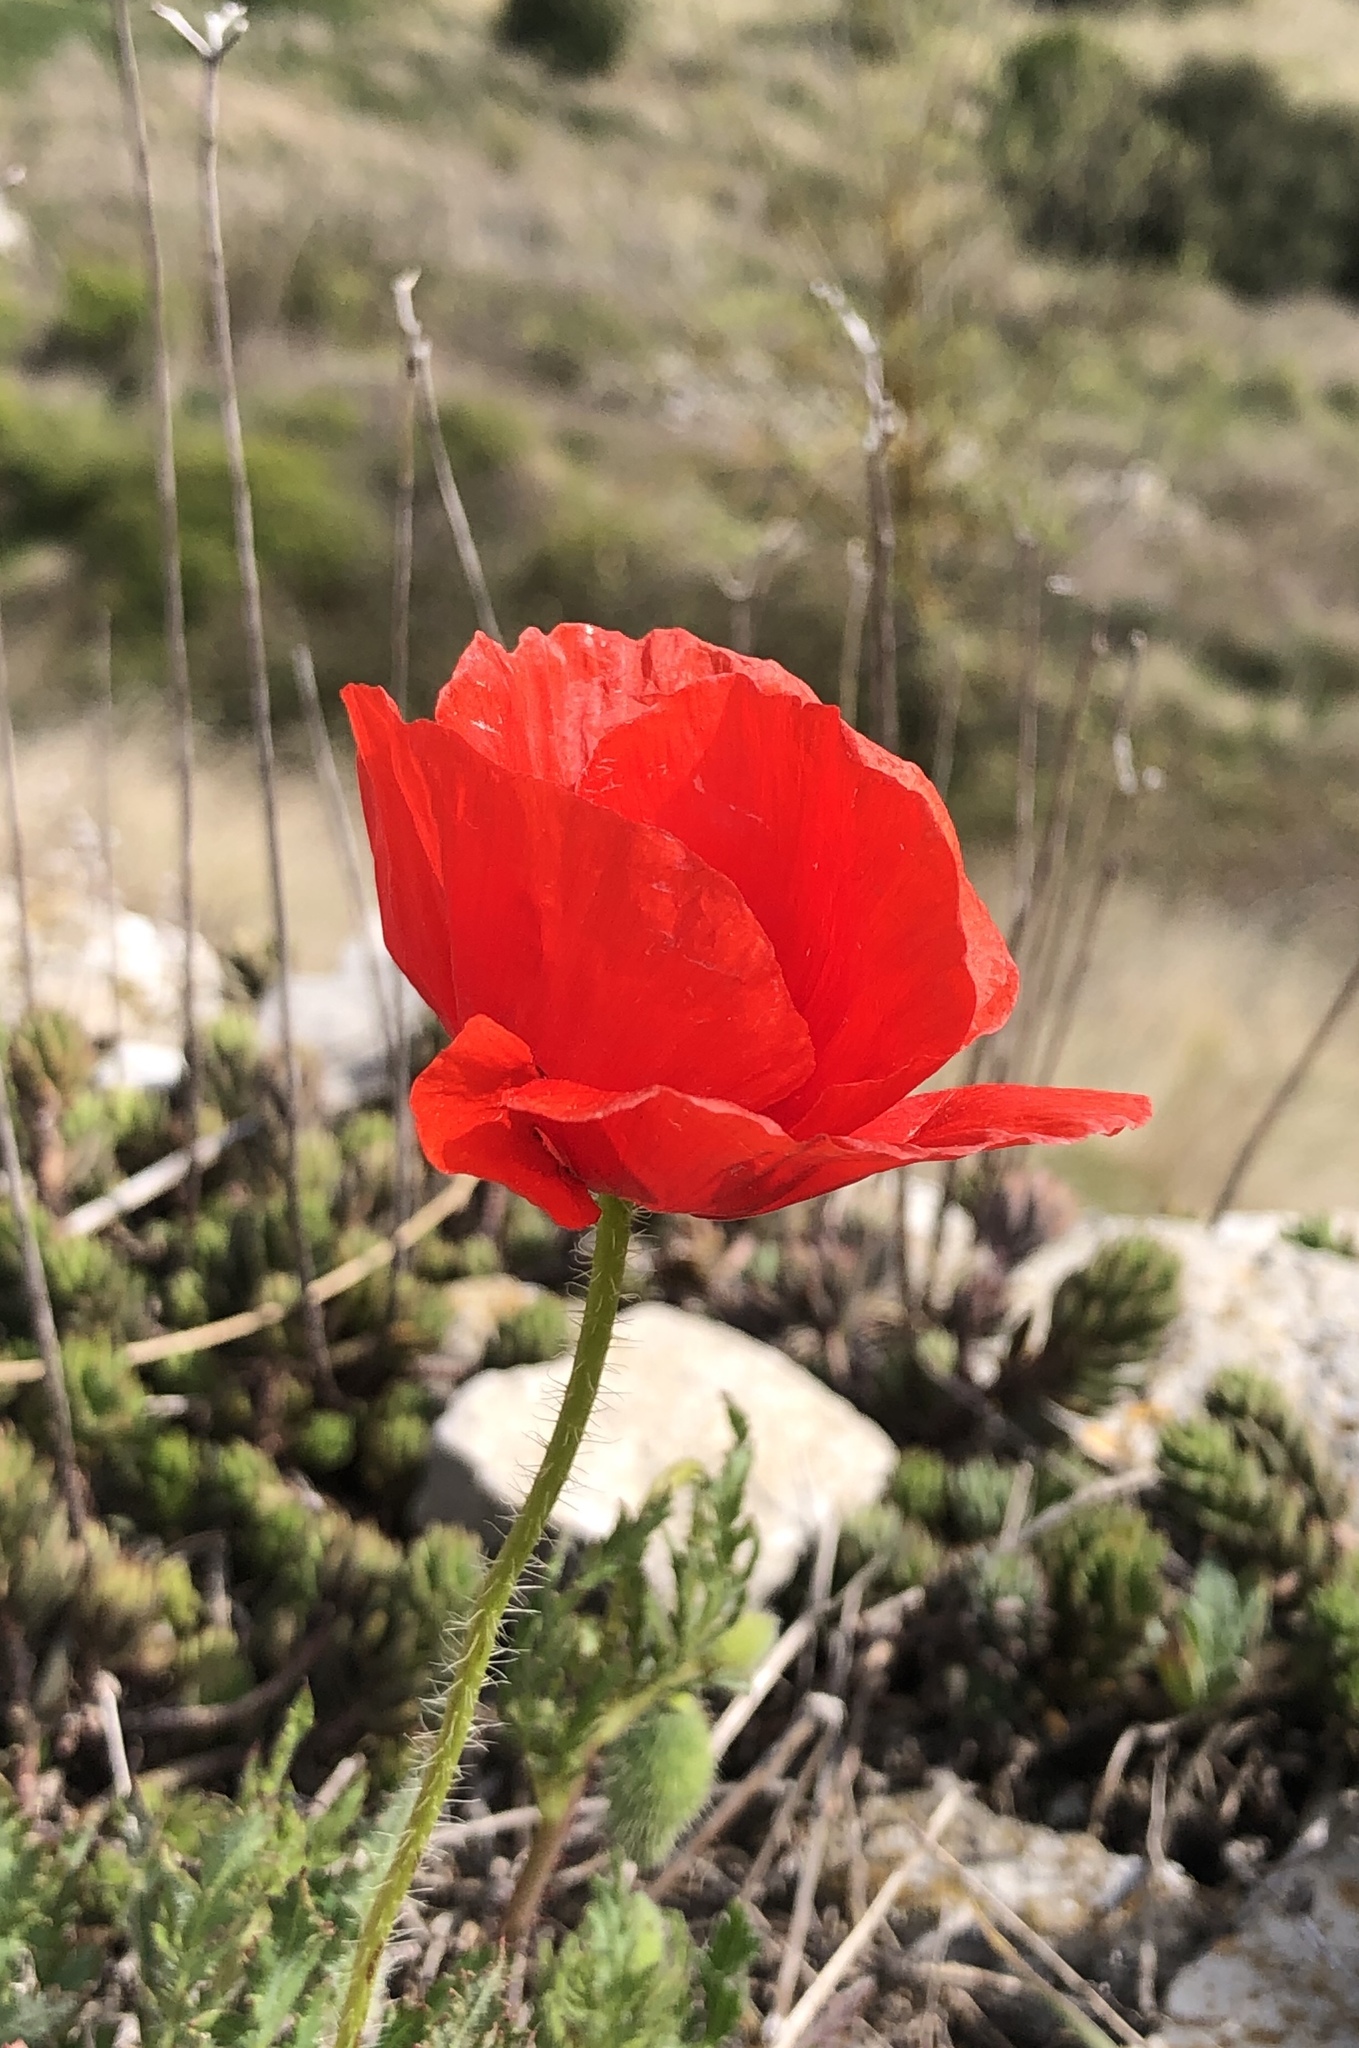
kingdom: Plantae
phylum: Tracheophyta
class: Magnoliopsida
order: Ranunculales
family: Papaveraceae
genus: Papaver
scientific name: Papaver rhoeas
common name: Corn poppy
